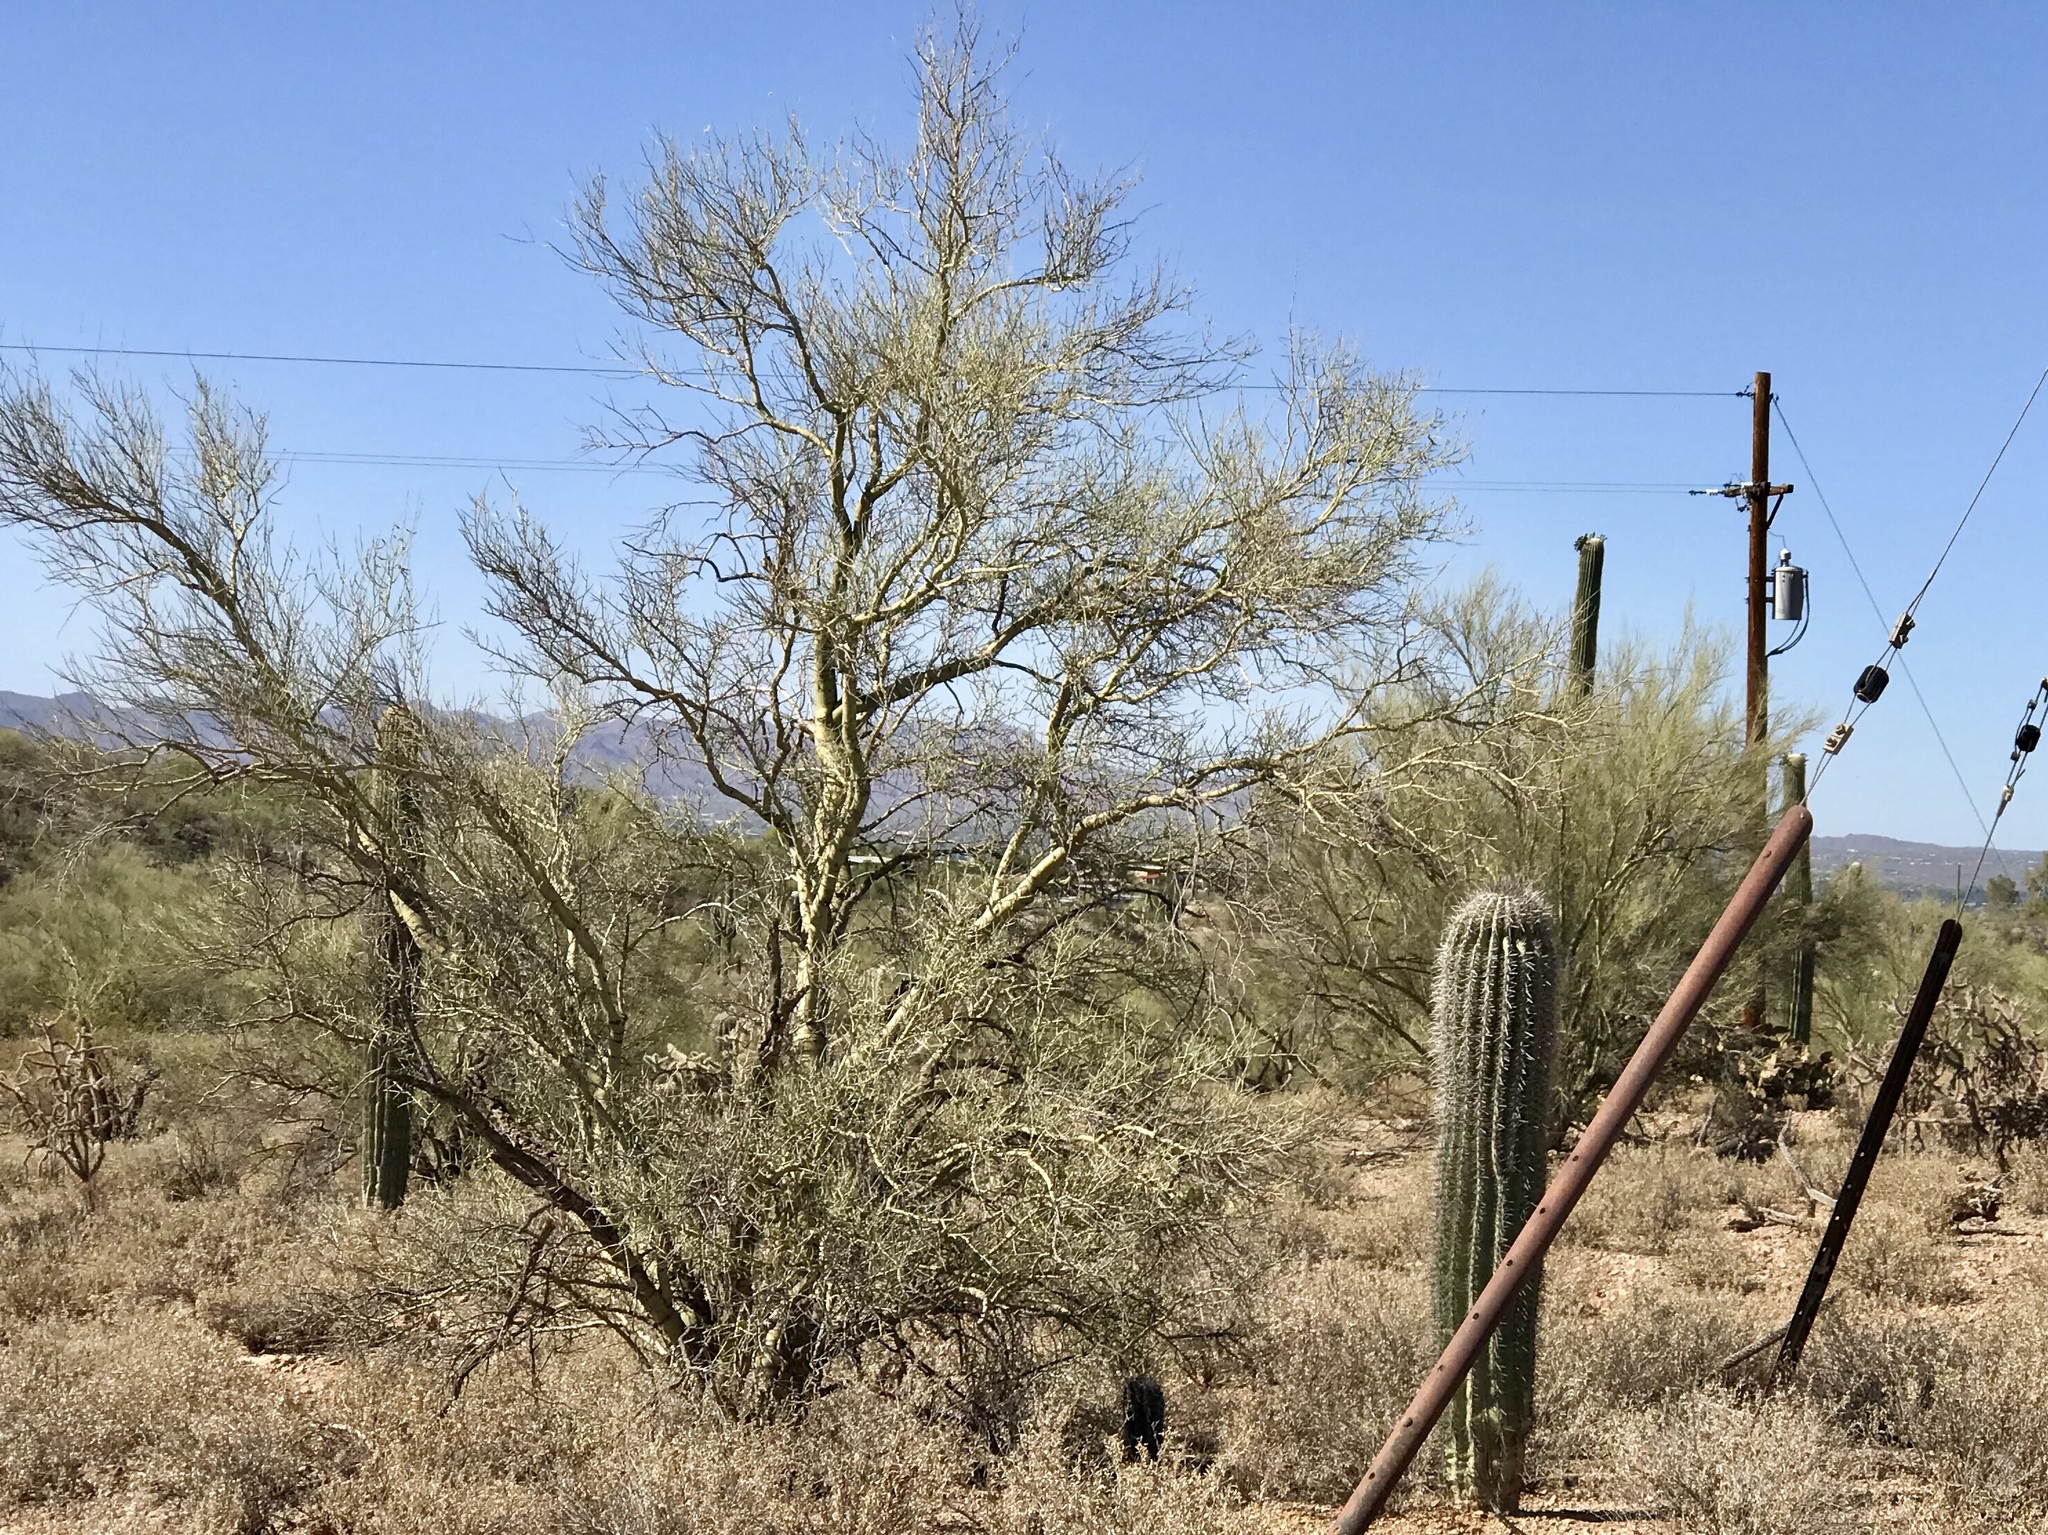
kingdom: Plantae
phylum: Tracheophyta
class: Magnoliopsida
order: Fabales
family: Fabaceae
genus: Parkinsonia
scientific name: Parkinsonia microphylla
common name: Yellow paloverde
